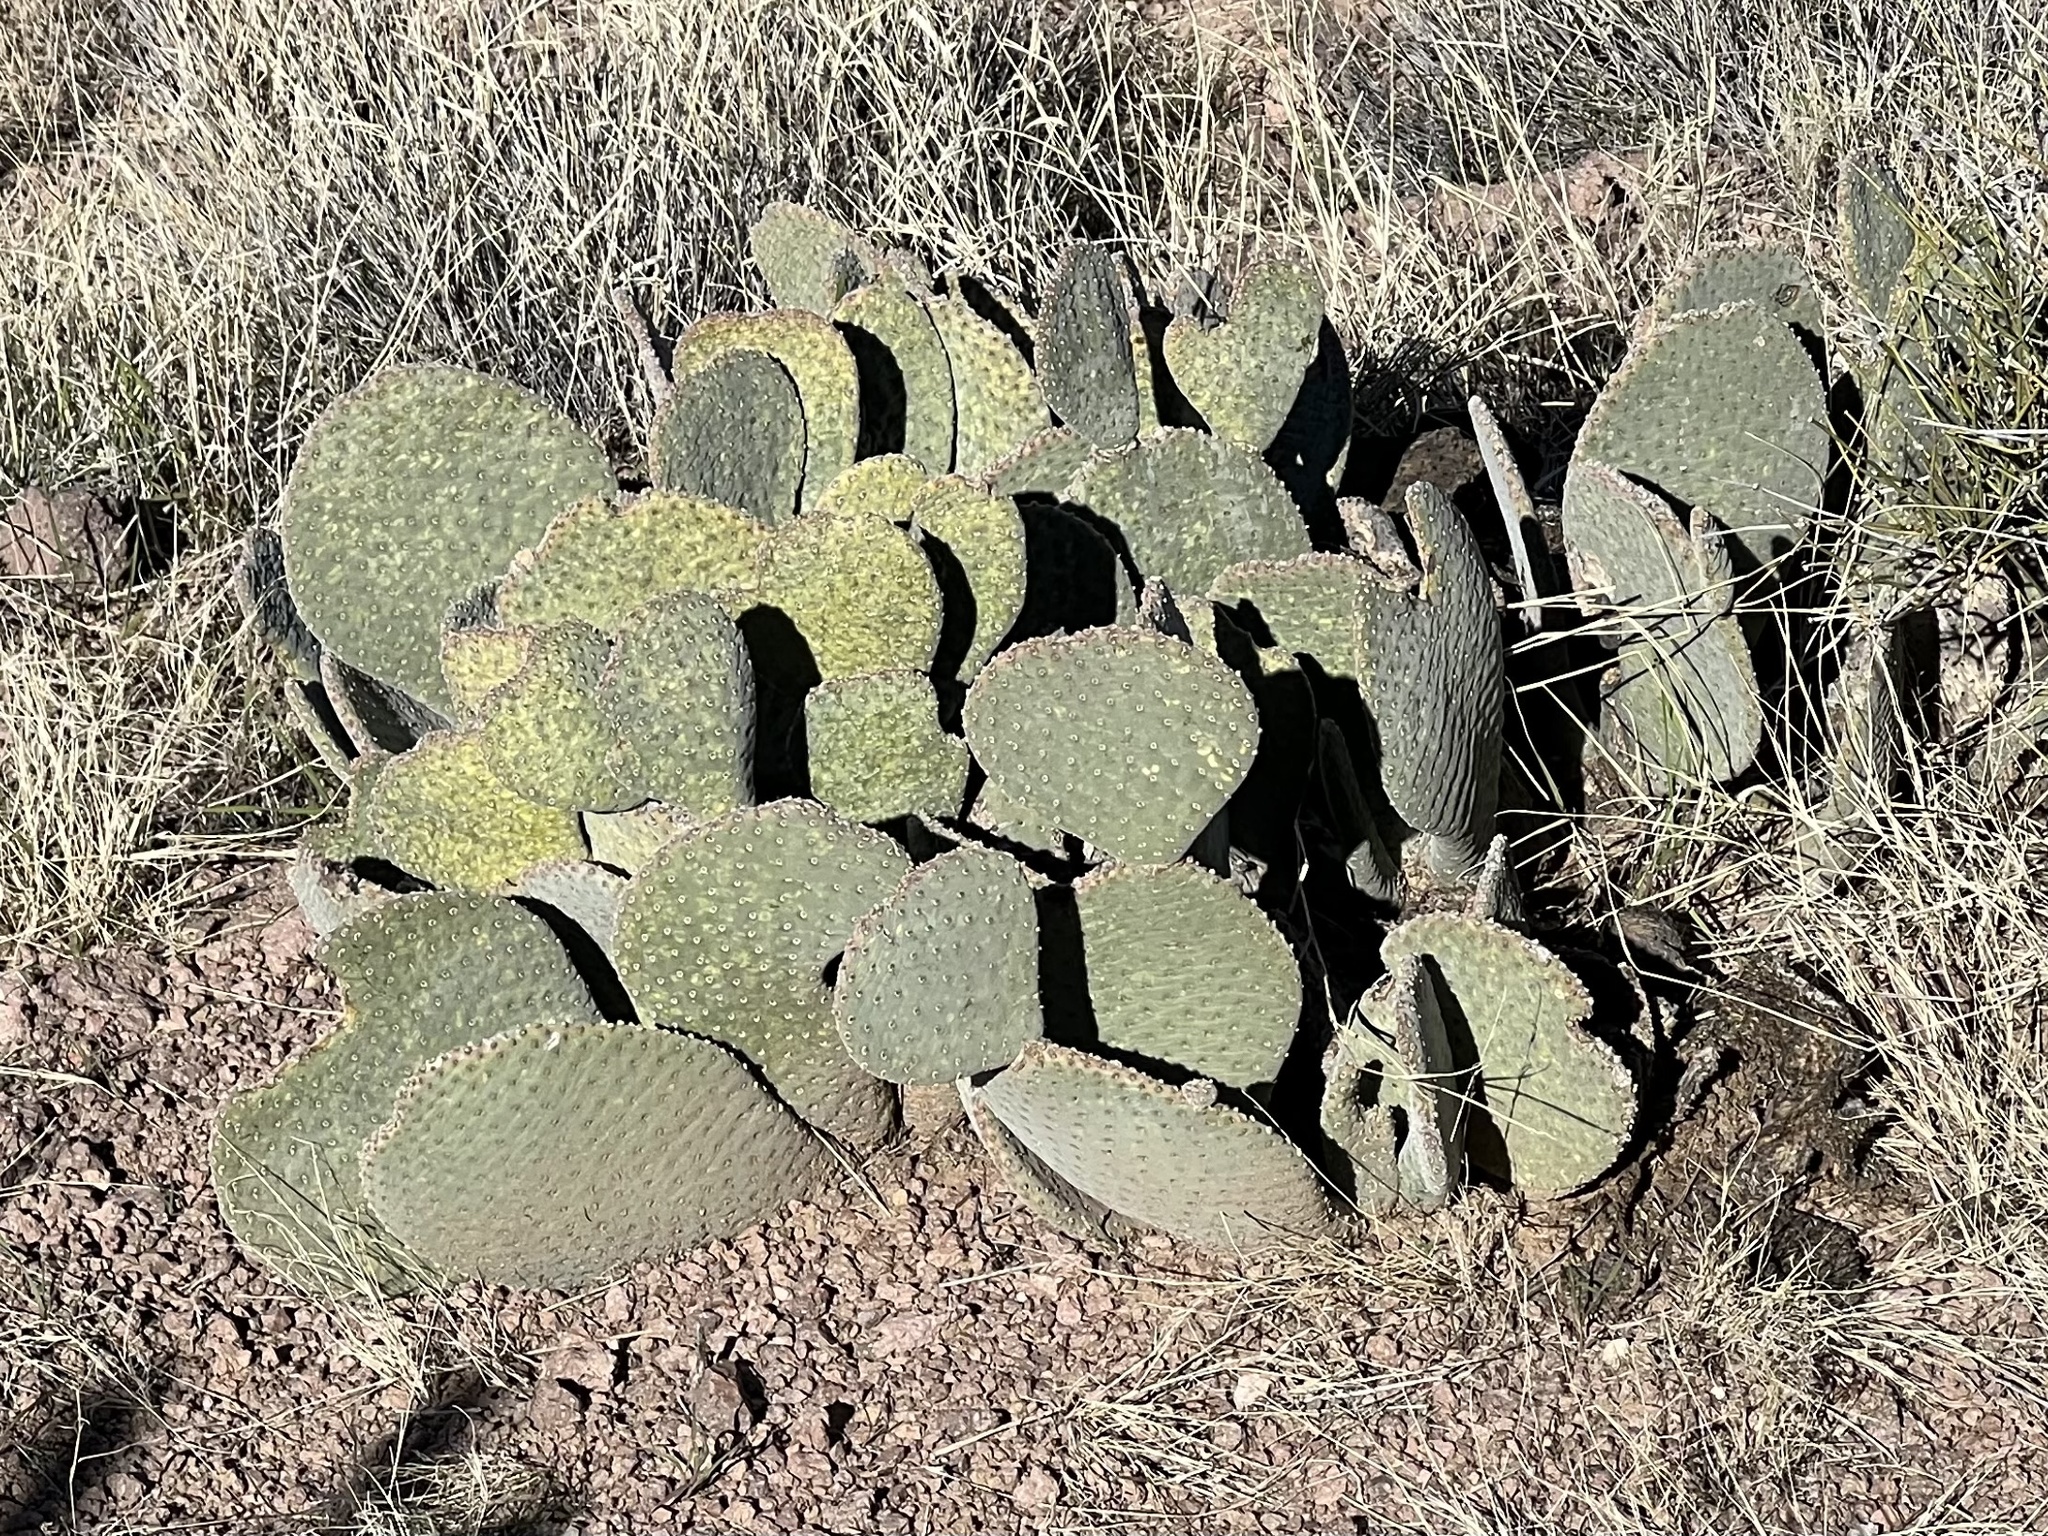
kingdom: Plantae
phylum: Tracheophyta
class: Magnoliopsida
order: Caryophyllales
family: Cactaceae
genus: Opuntia
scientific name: Opuntia basilaris
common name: Beavertail prickly-pear
